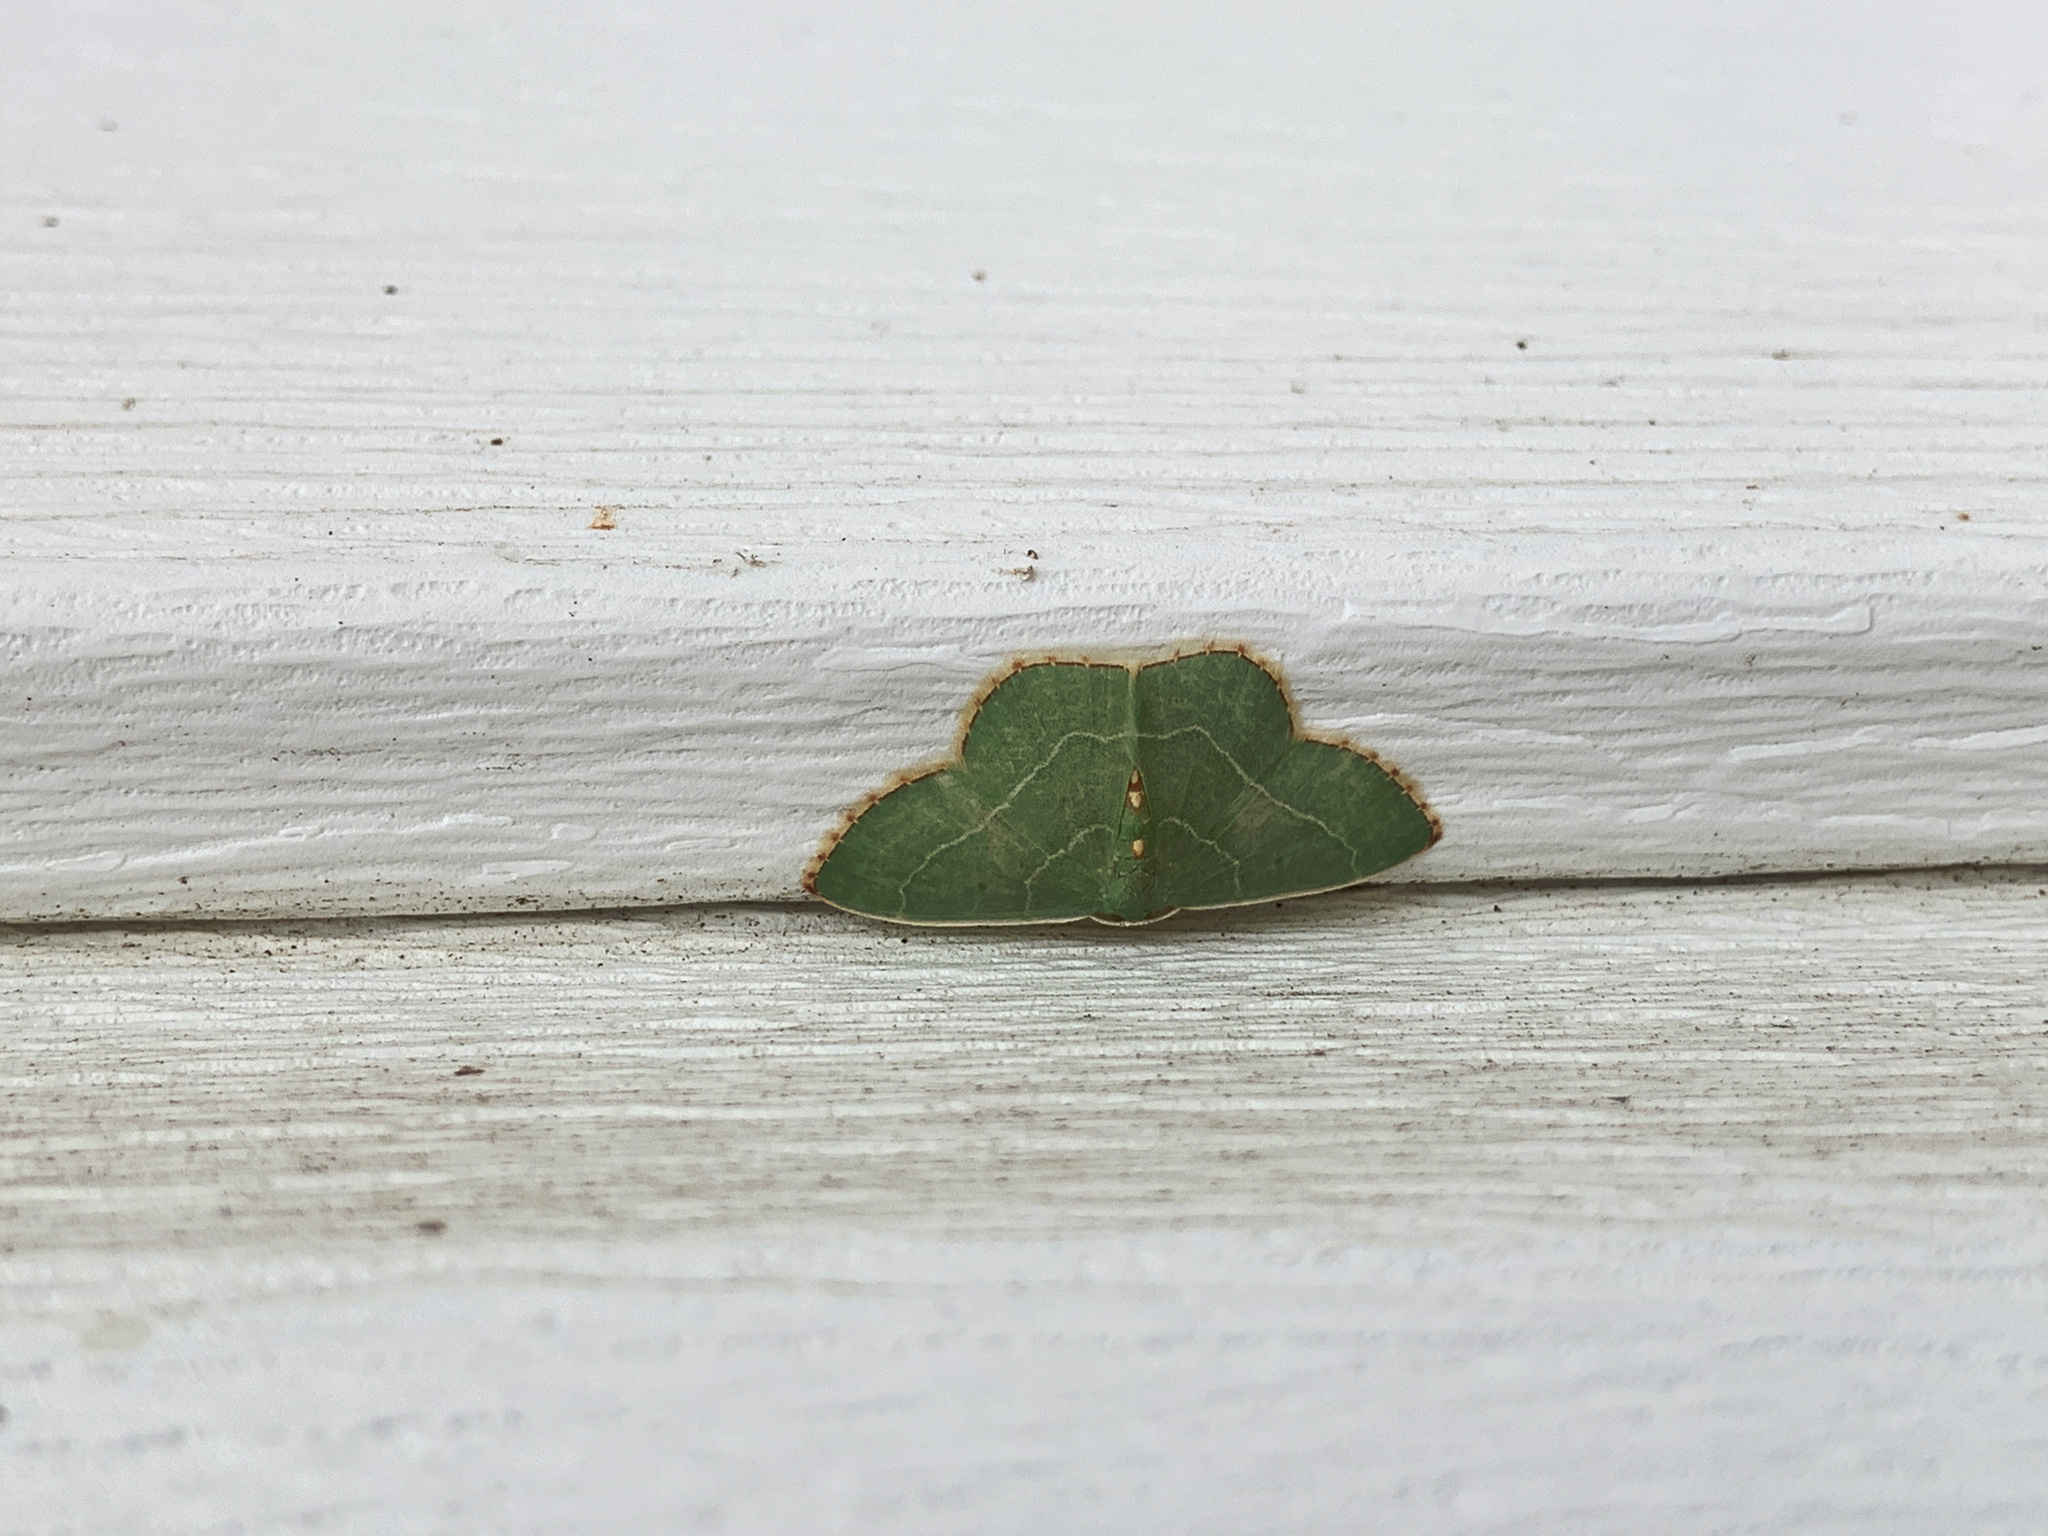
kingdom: Animalia
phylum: Arthropoda
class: Insecta
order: Lepidoptera
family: Geometridae
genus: Nemoria
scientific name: Nemoria bistriaria
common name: Red-fringed emerald
